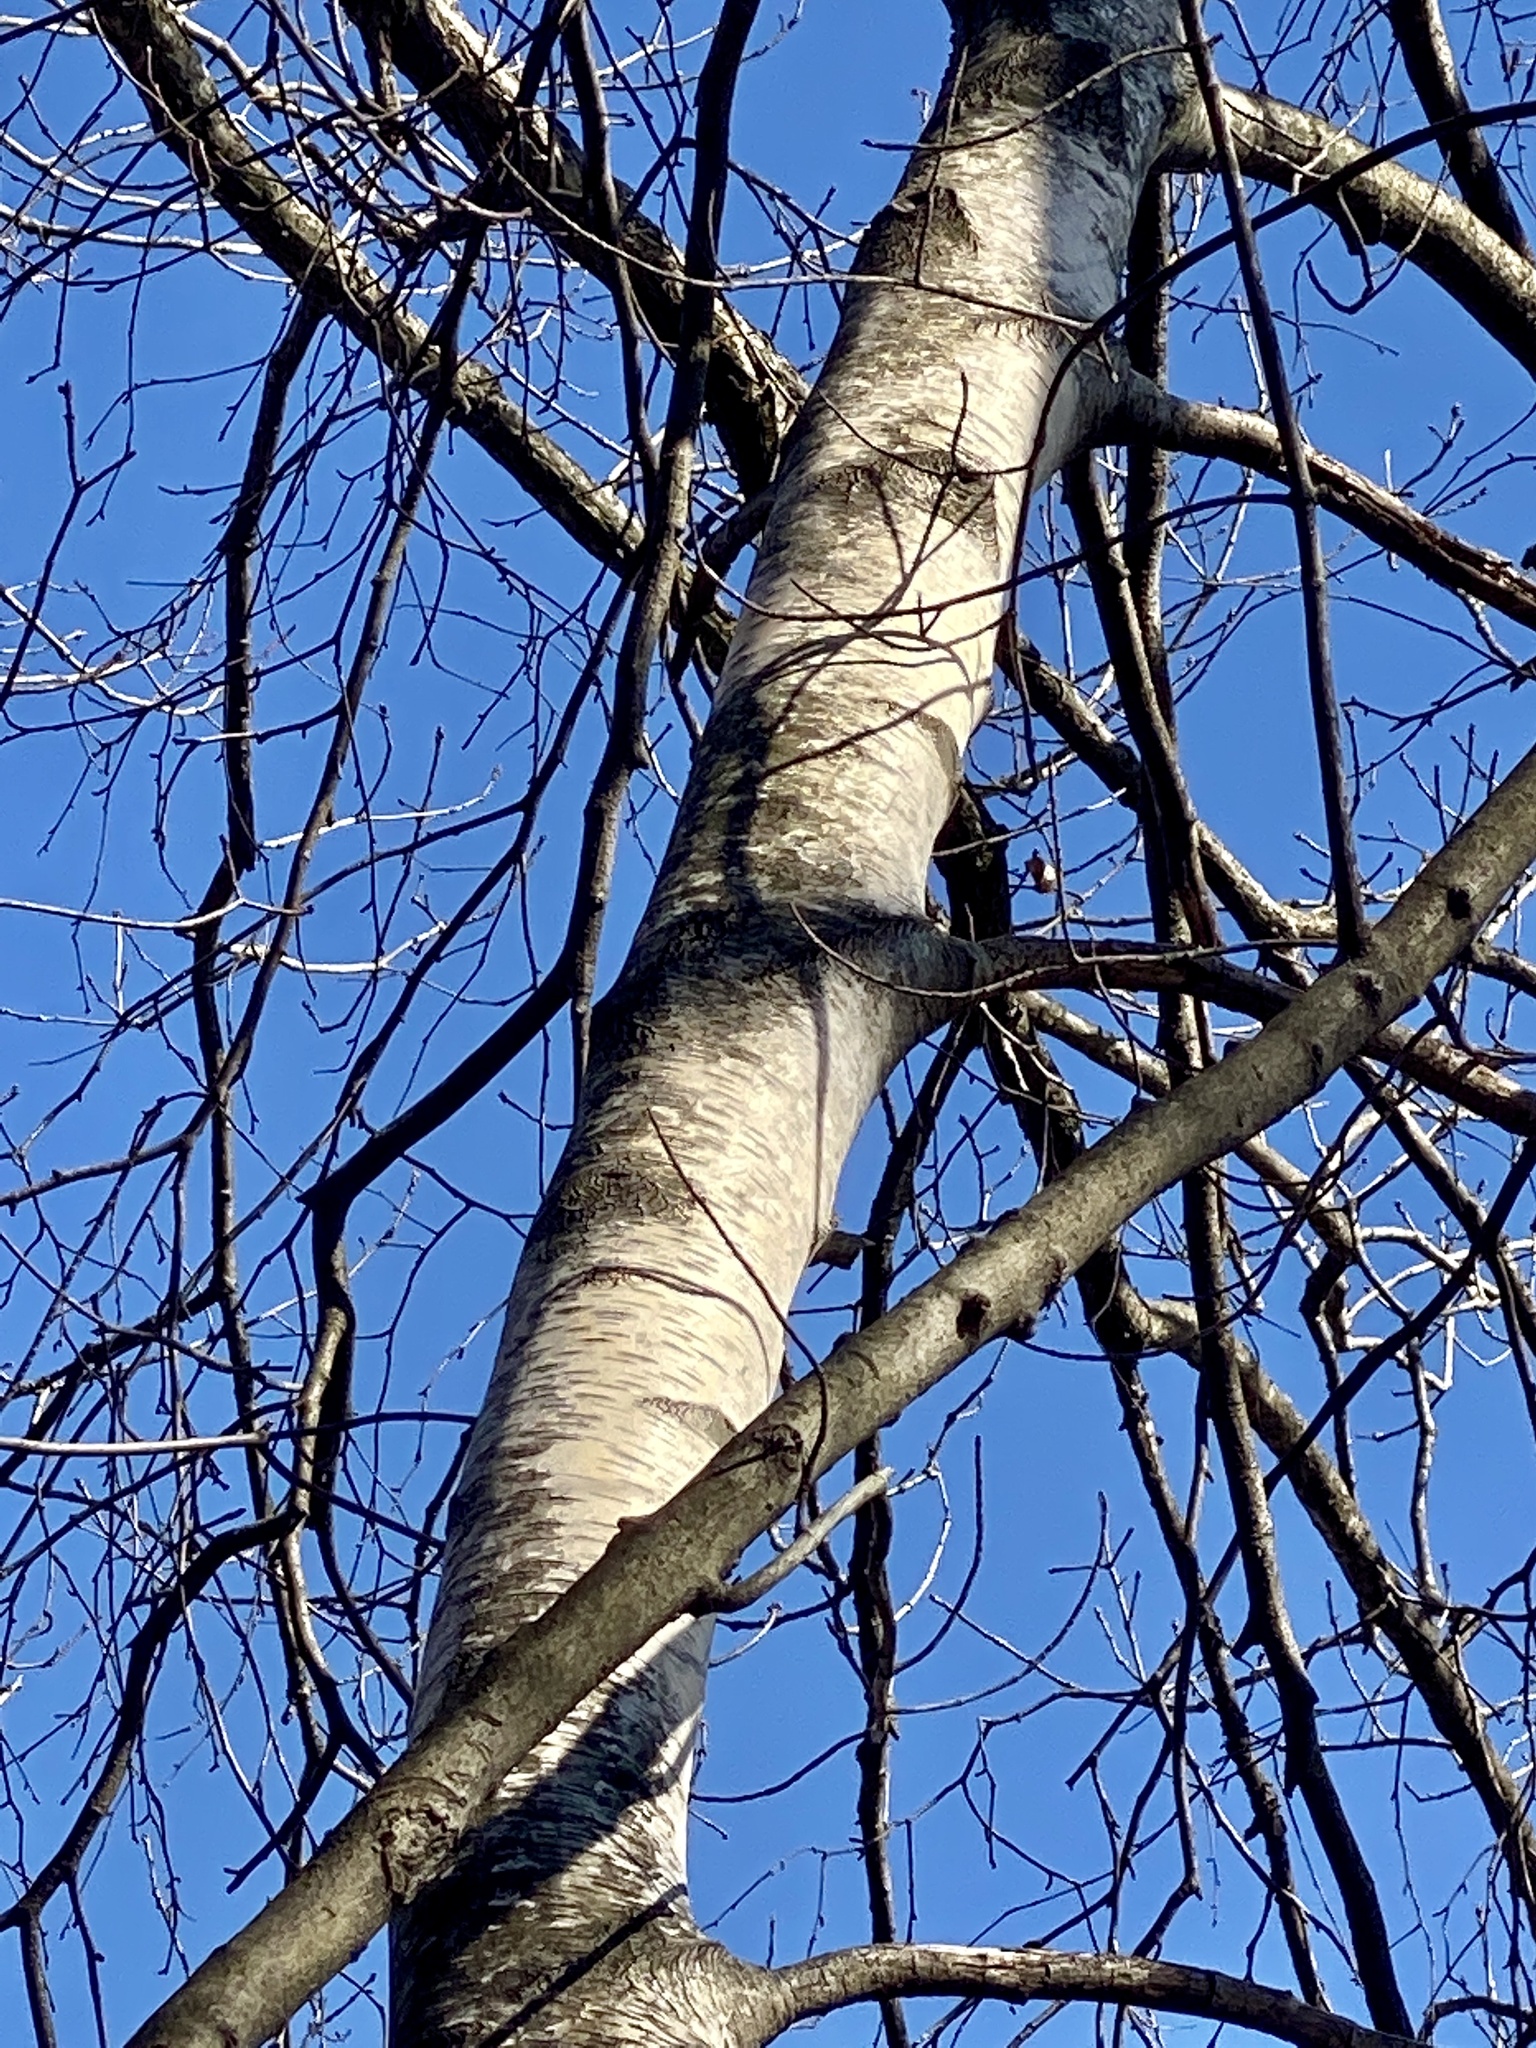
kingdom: Plantae
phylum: Tracheophyta
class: Magnoliopsida
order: Fagales
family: Betulaceae
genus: Betula
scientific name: Betula populifolia
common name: Fire birch
